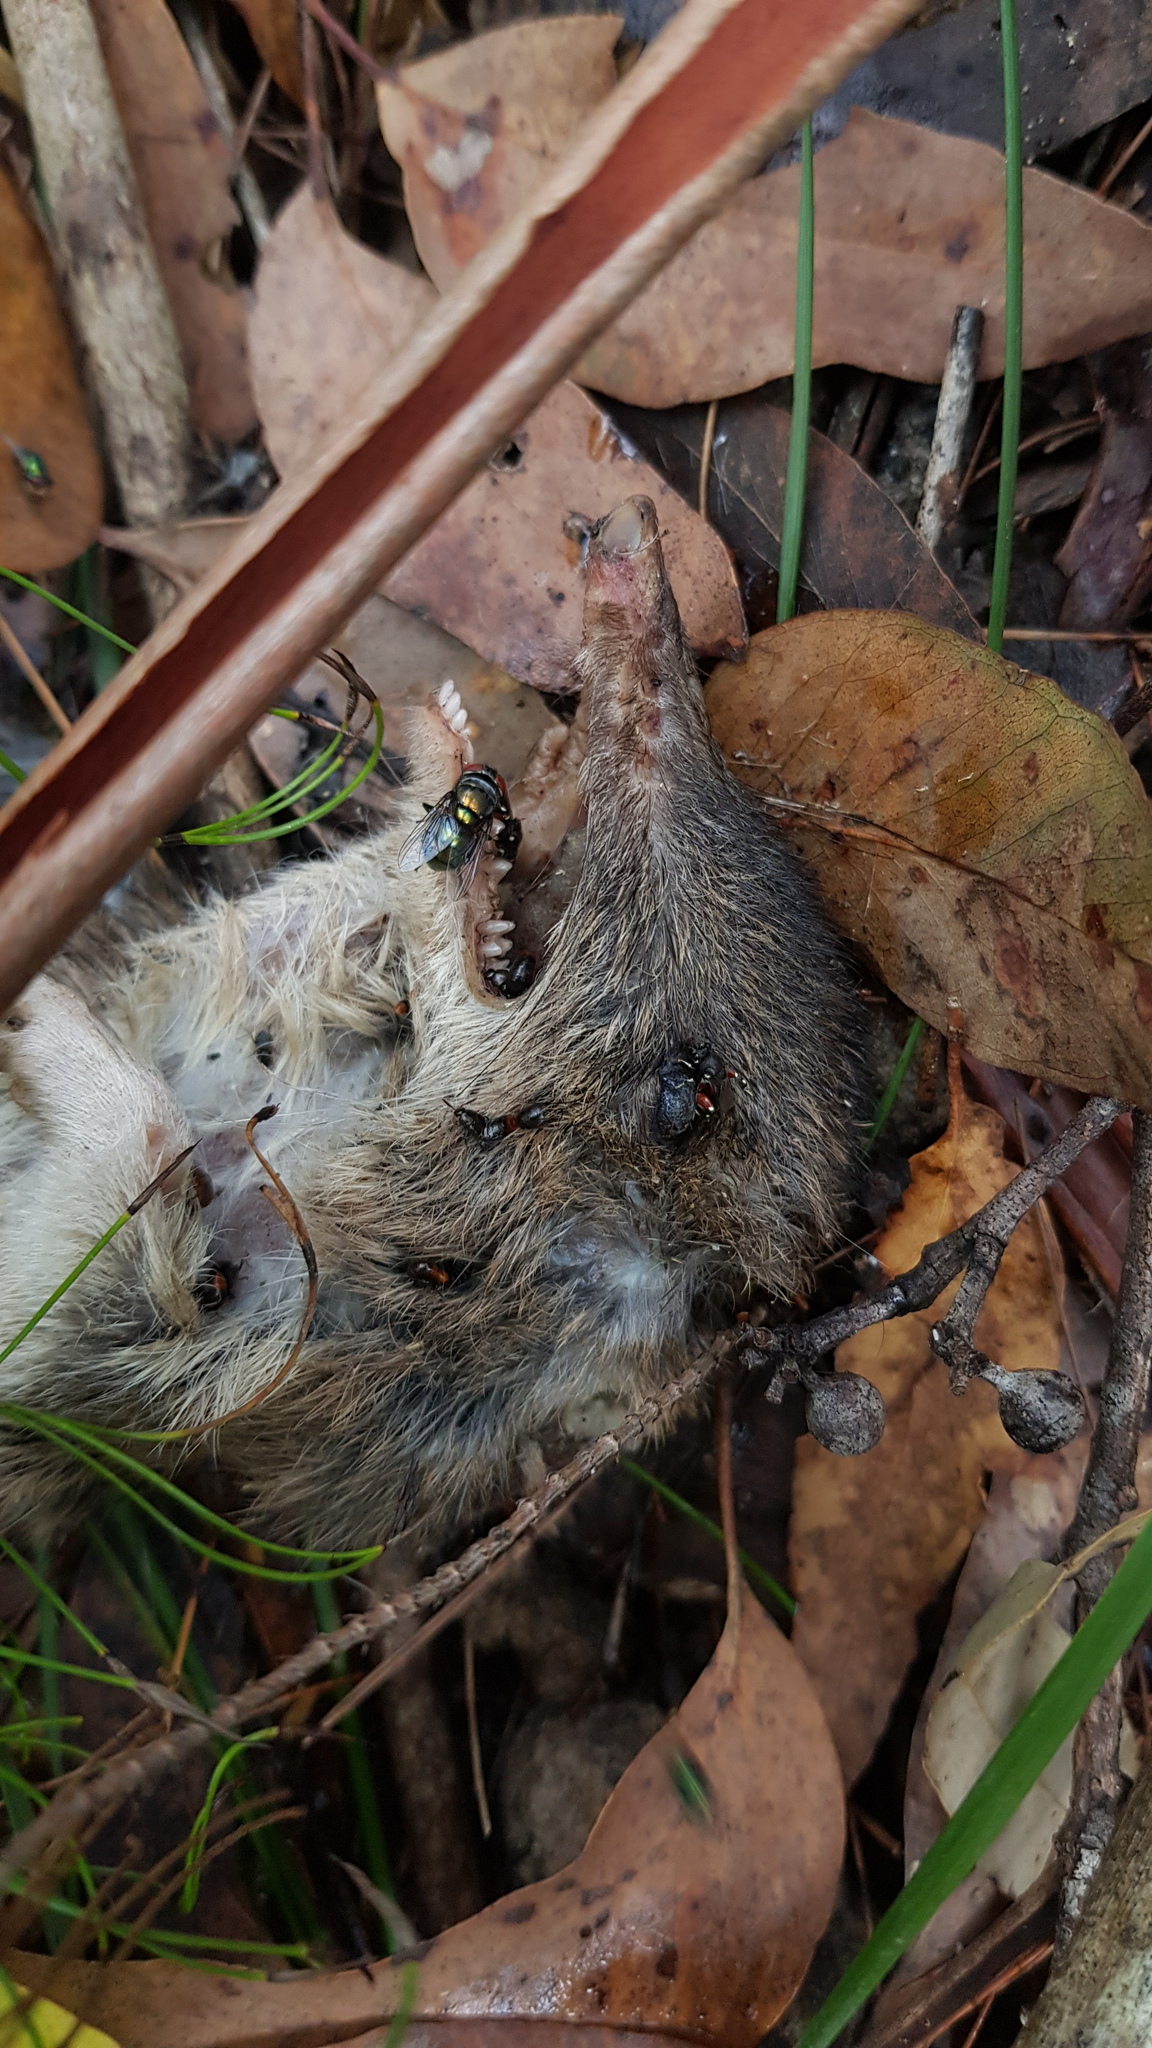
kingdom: Animalia
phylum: Chordata
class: Mammalia
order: Peramelemorphia
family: Peramelidae
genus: Perameles
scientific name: Perameles nasuta
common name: Long-nosed bandicoot
